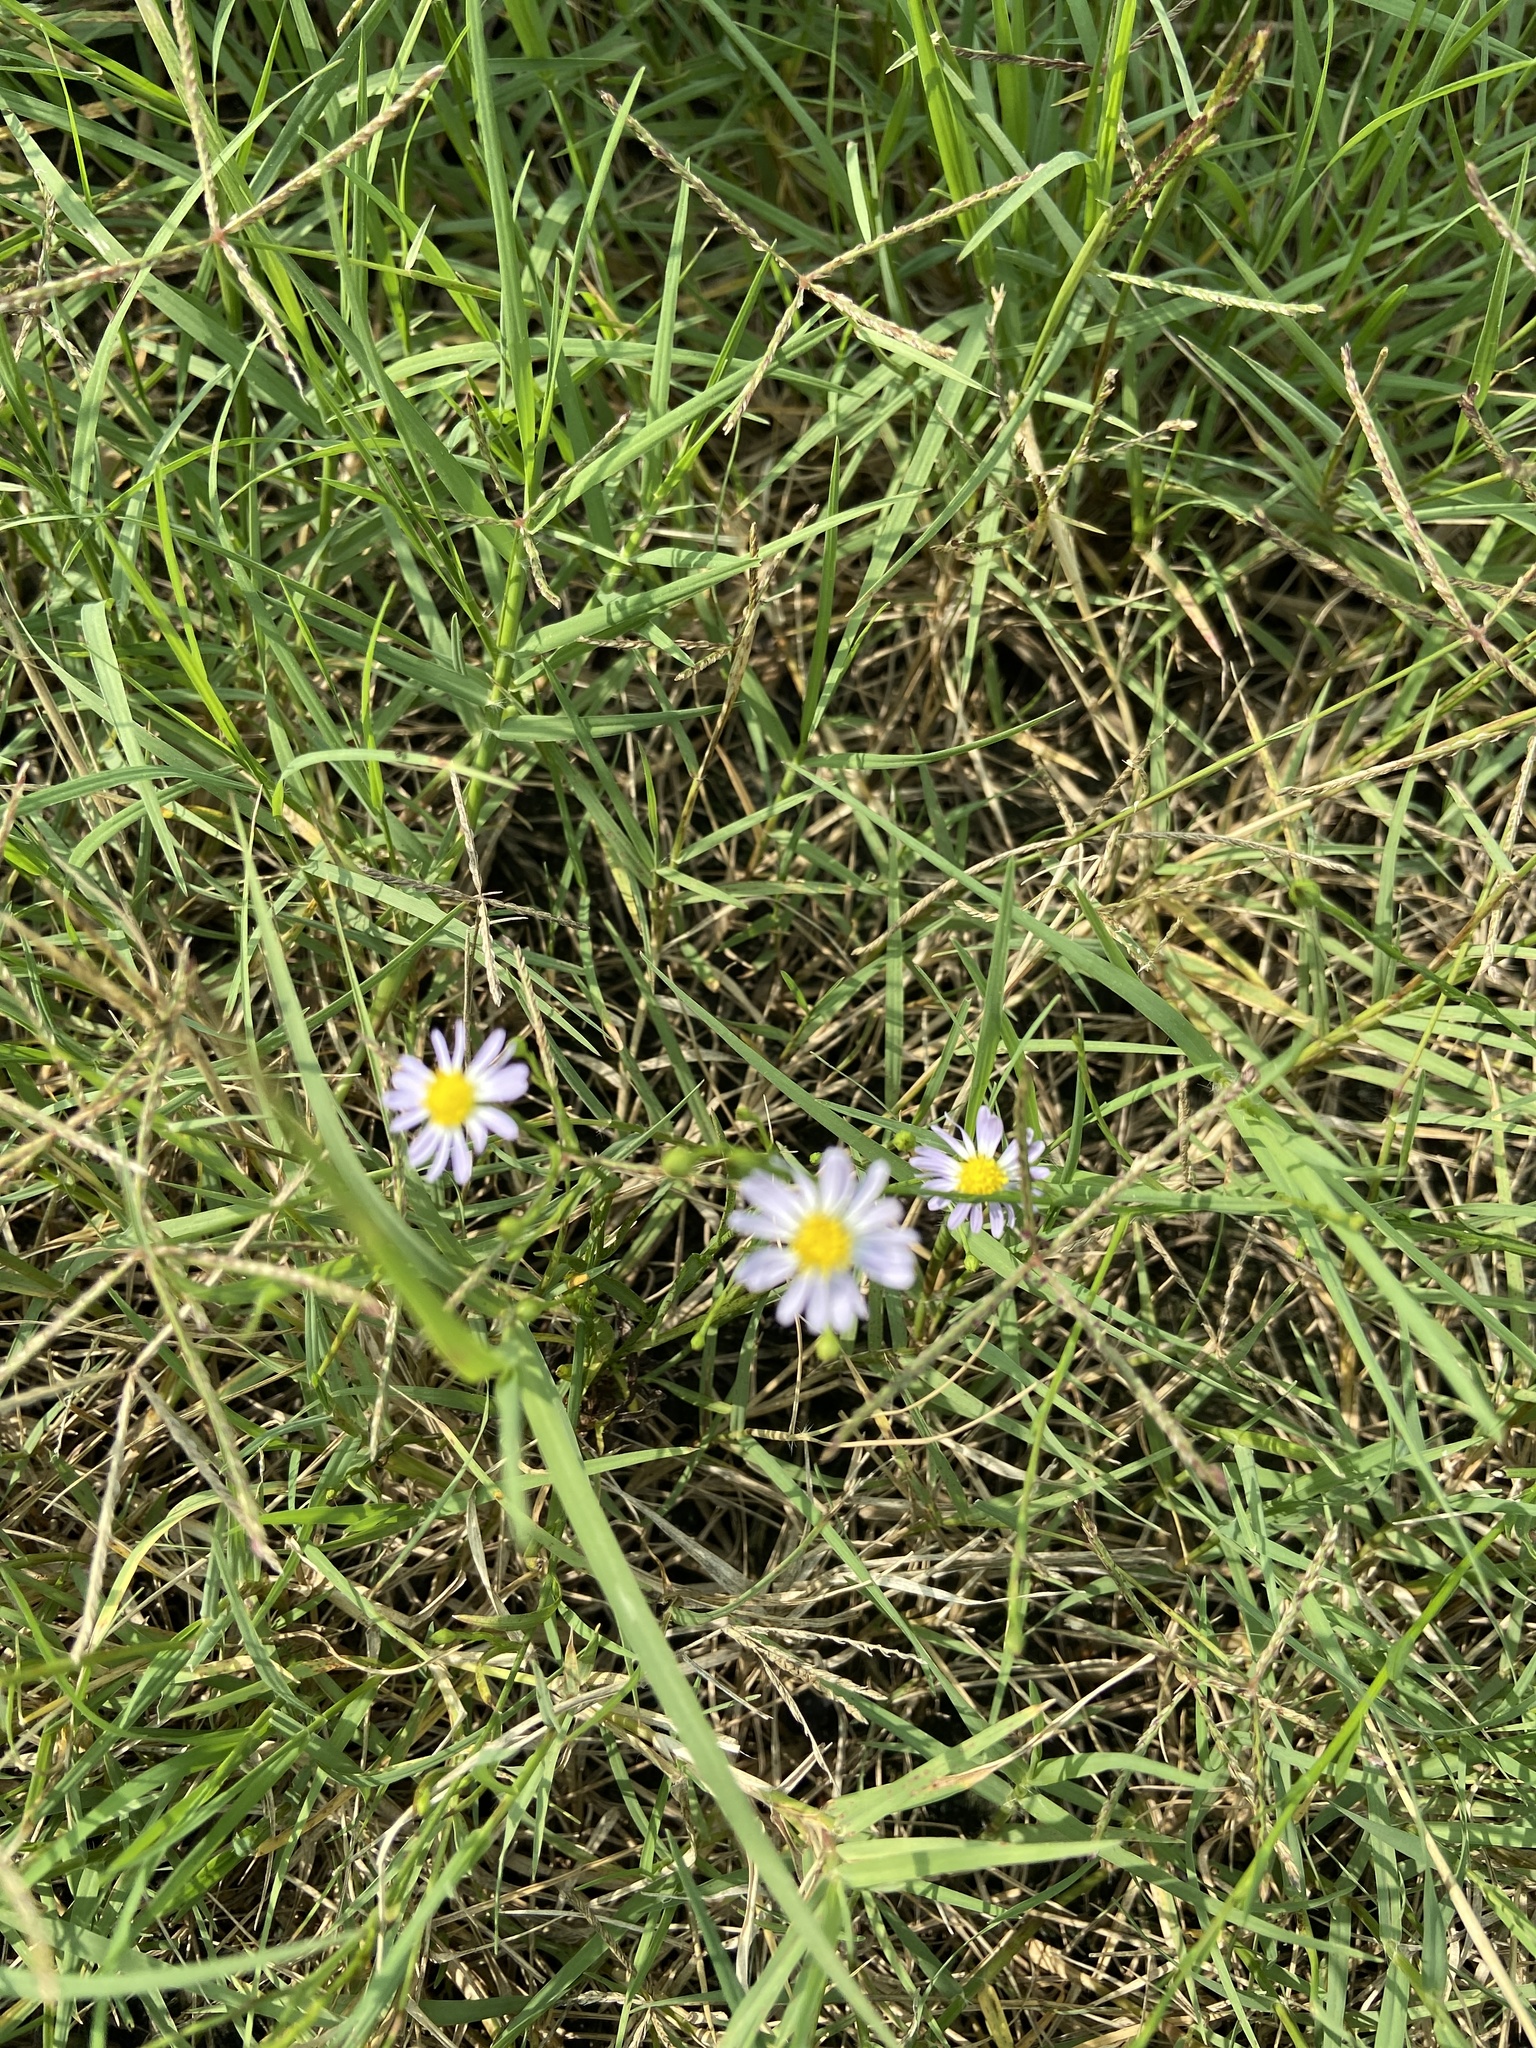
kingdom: Plantae
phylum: Tracheophyta
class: Magnoliopsida
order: Asterales
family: Asteraceae
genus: Symphyotrichum
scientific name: Symphyotrichum divaricatum
